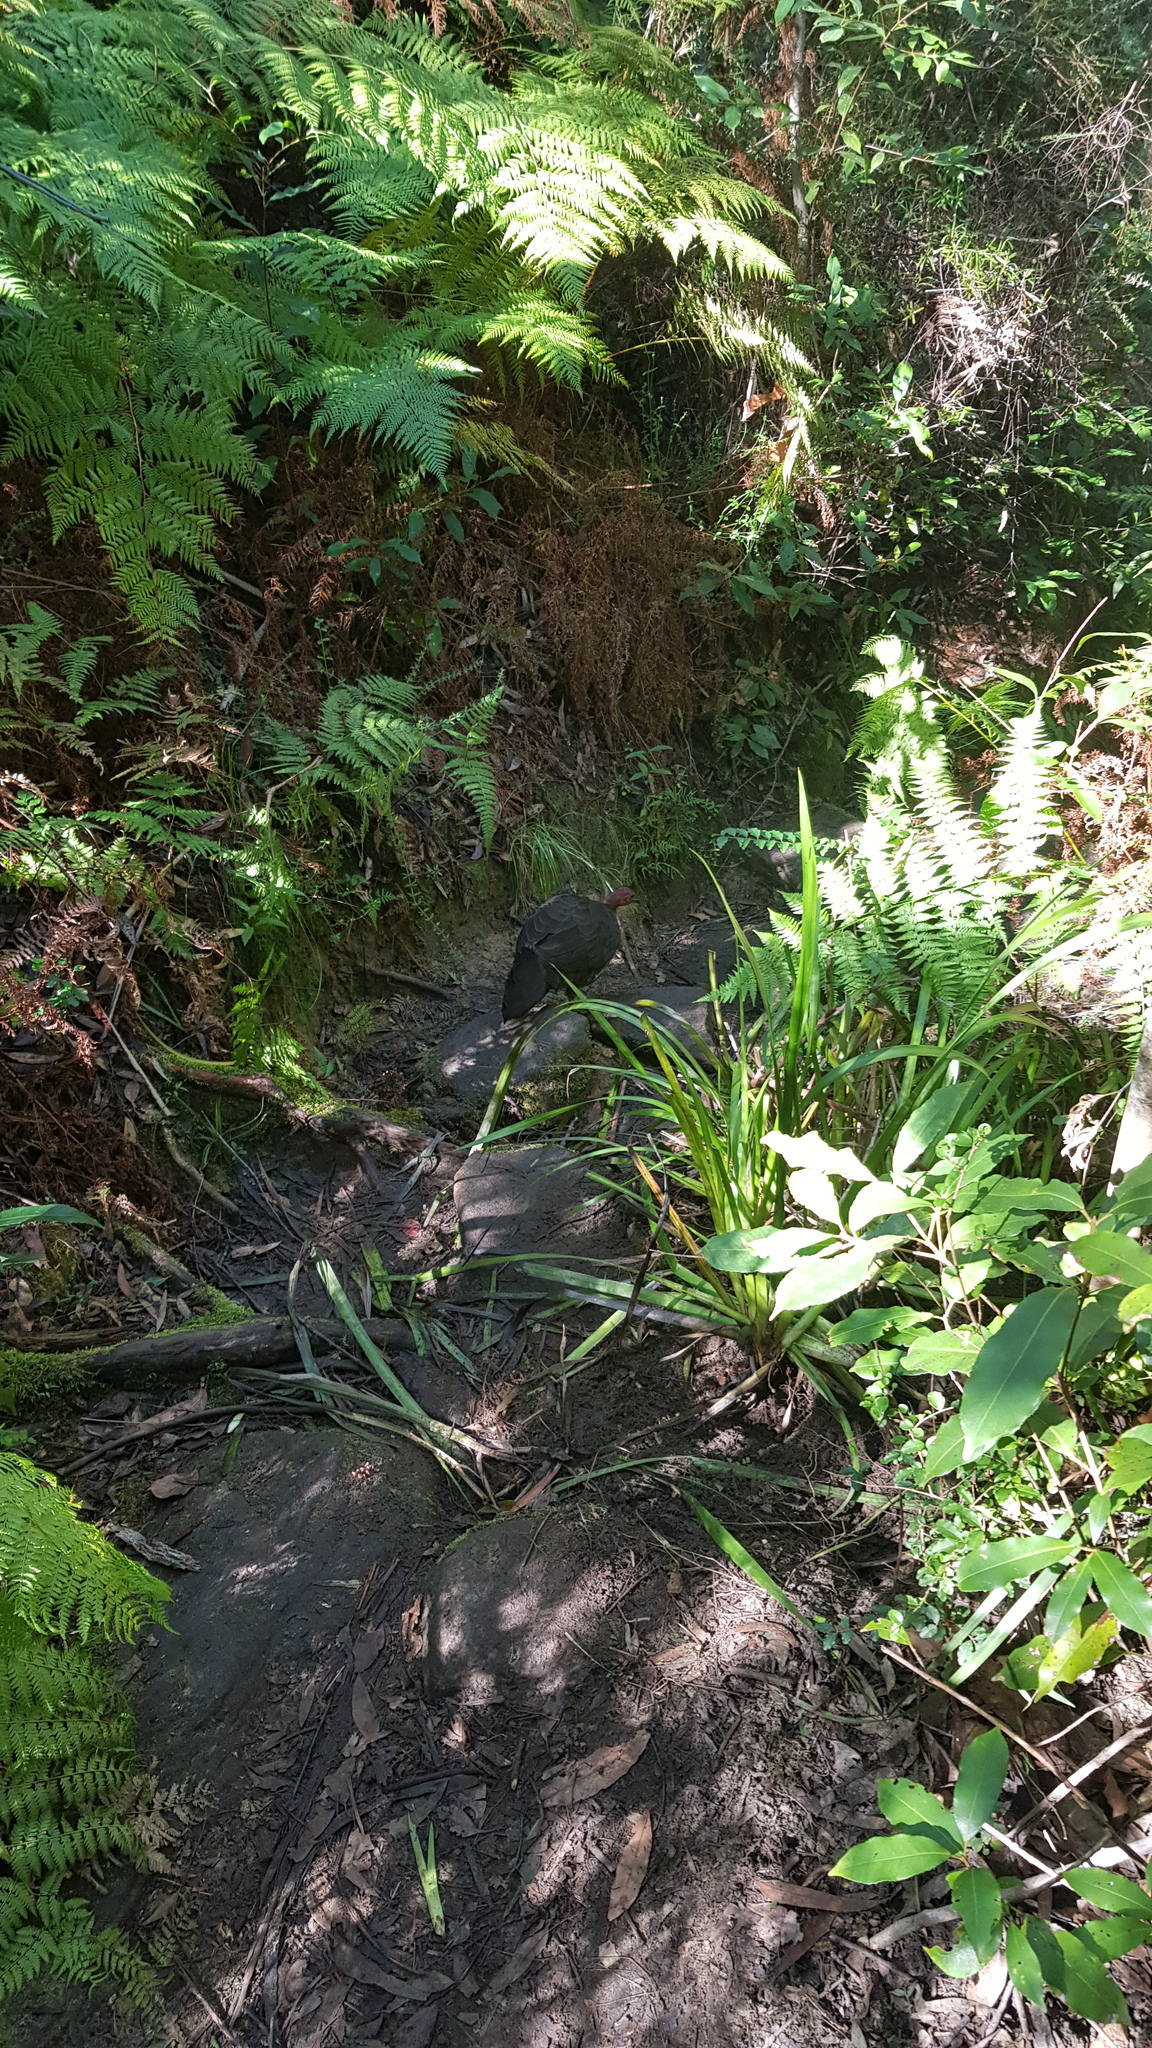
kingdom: Animalia
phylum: Chordata
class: Aves
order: Galliformes
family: Megapodiidae
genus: Alectura
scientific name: Alectura lathami
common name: Australian brushturkey
